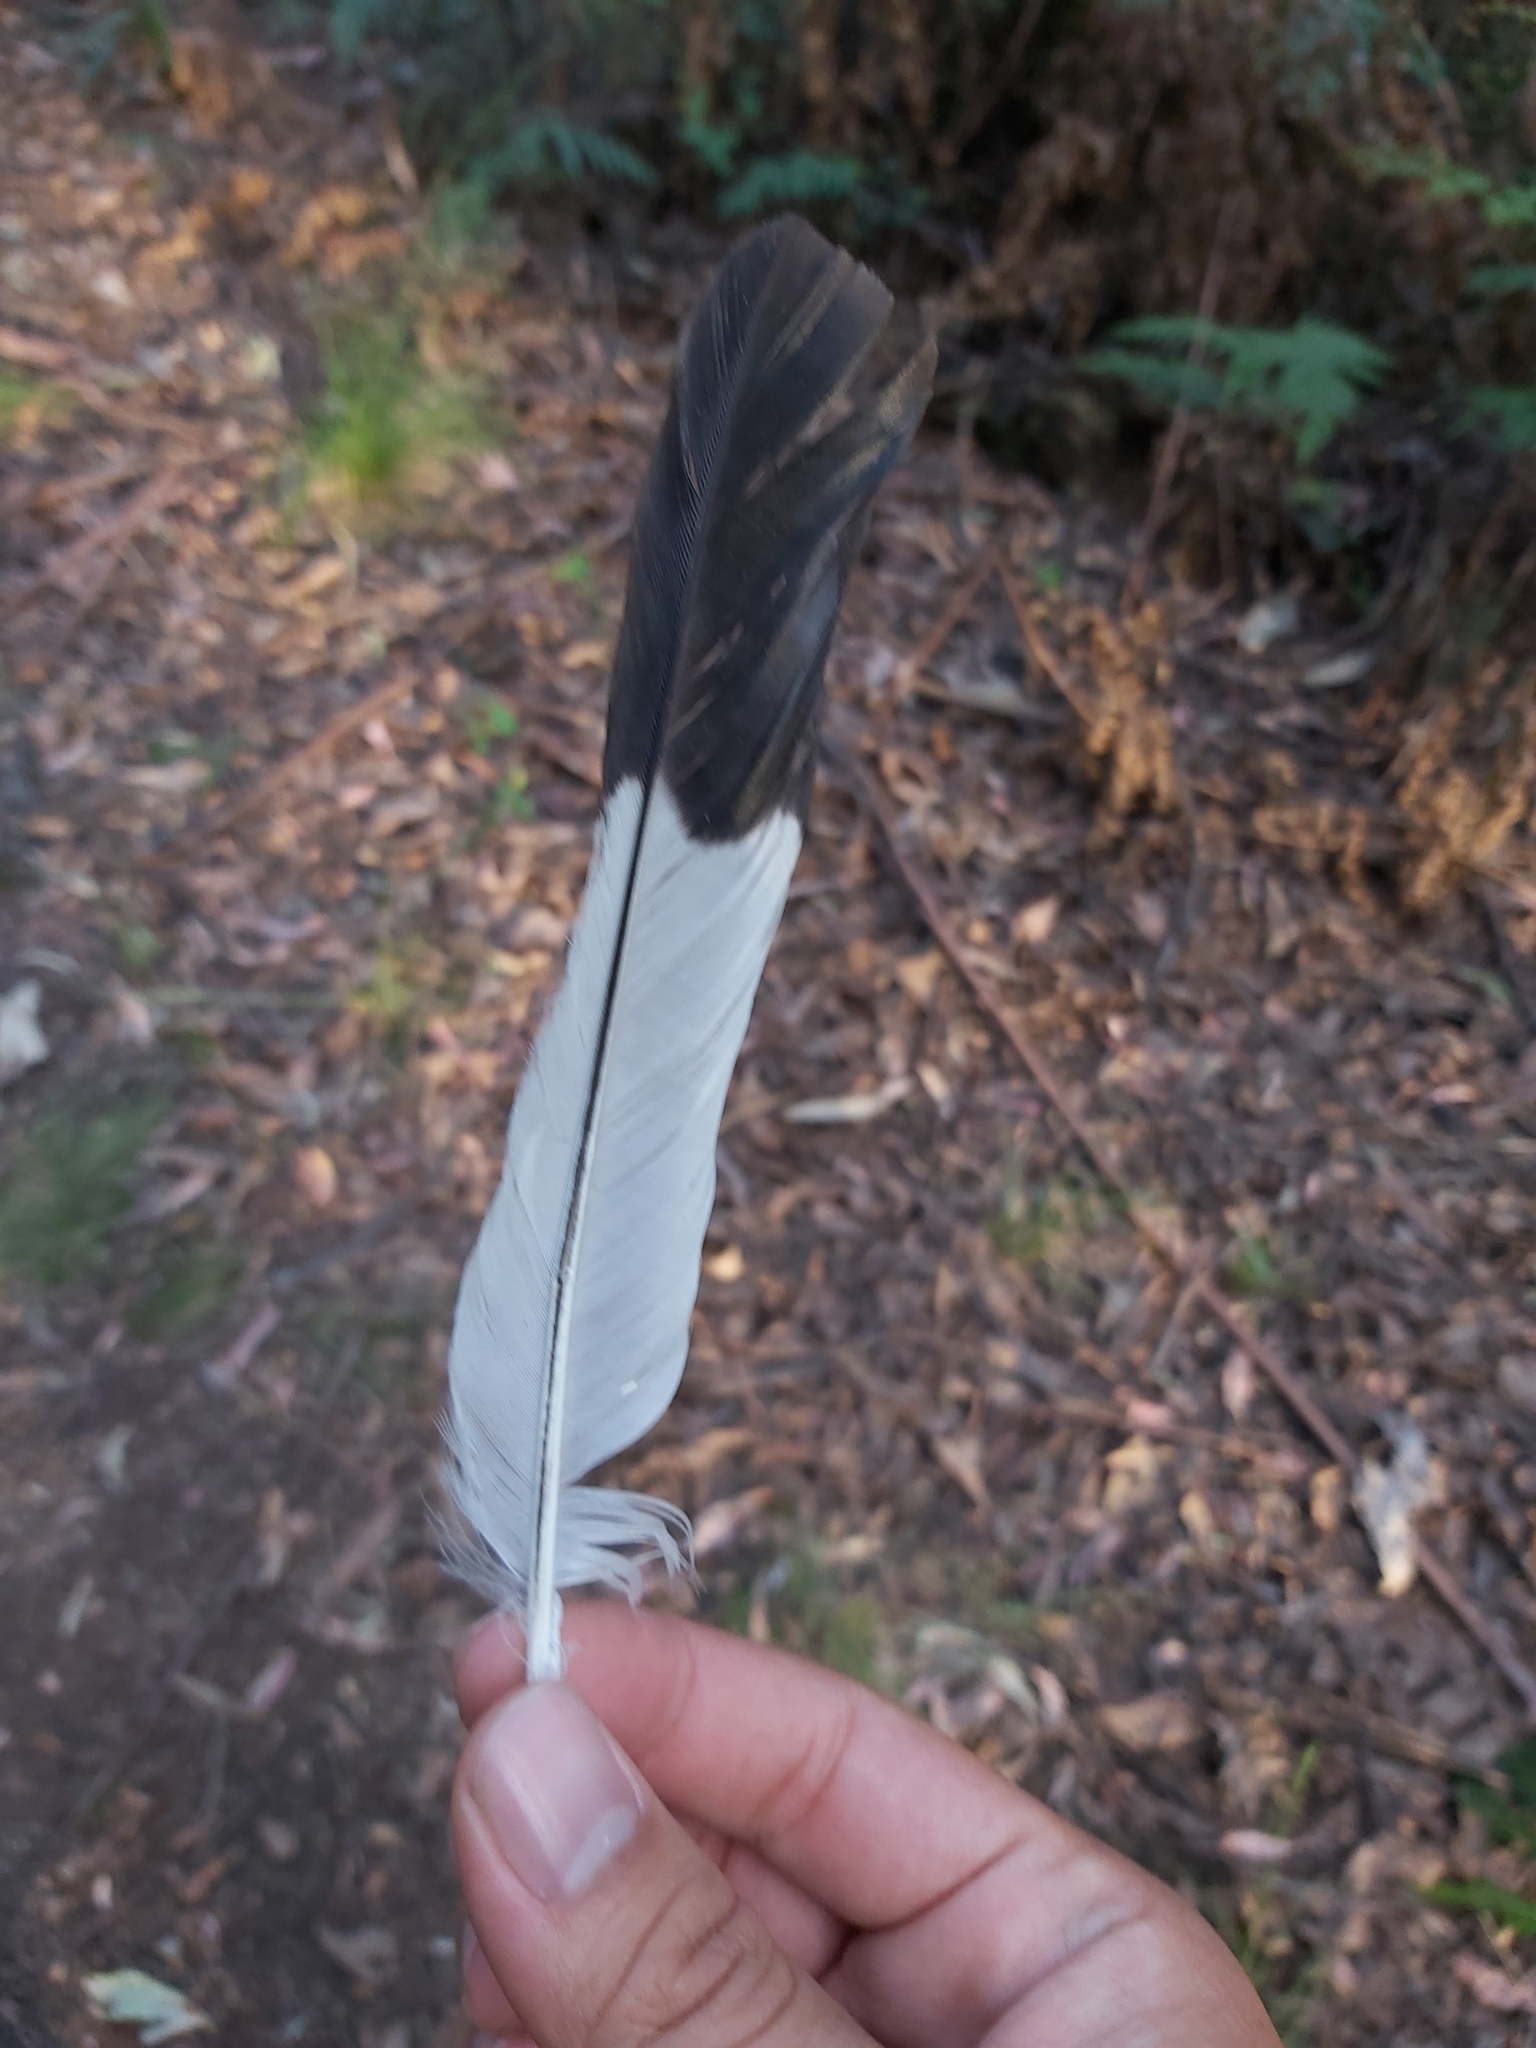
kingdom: Animalia
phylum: Chordata
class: Aves
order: Passeriformes
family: Cracticidae
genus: Gymnorhina
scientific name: Gymnorhina tibicen
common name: Australian magpie
